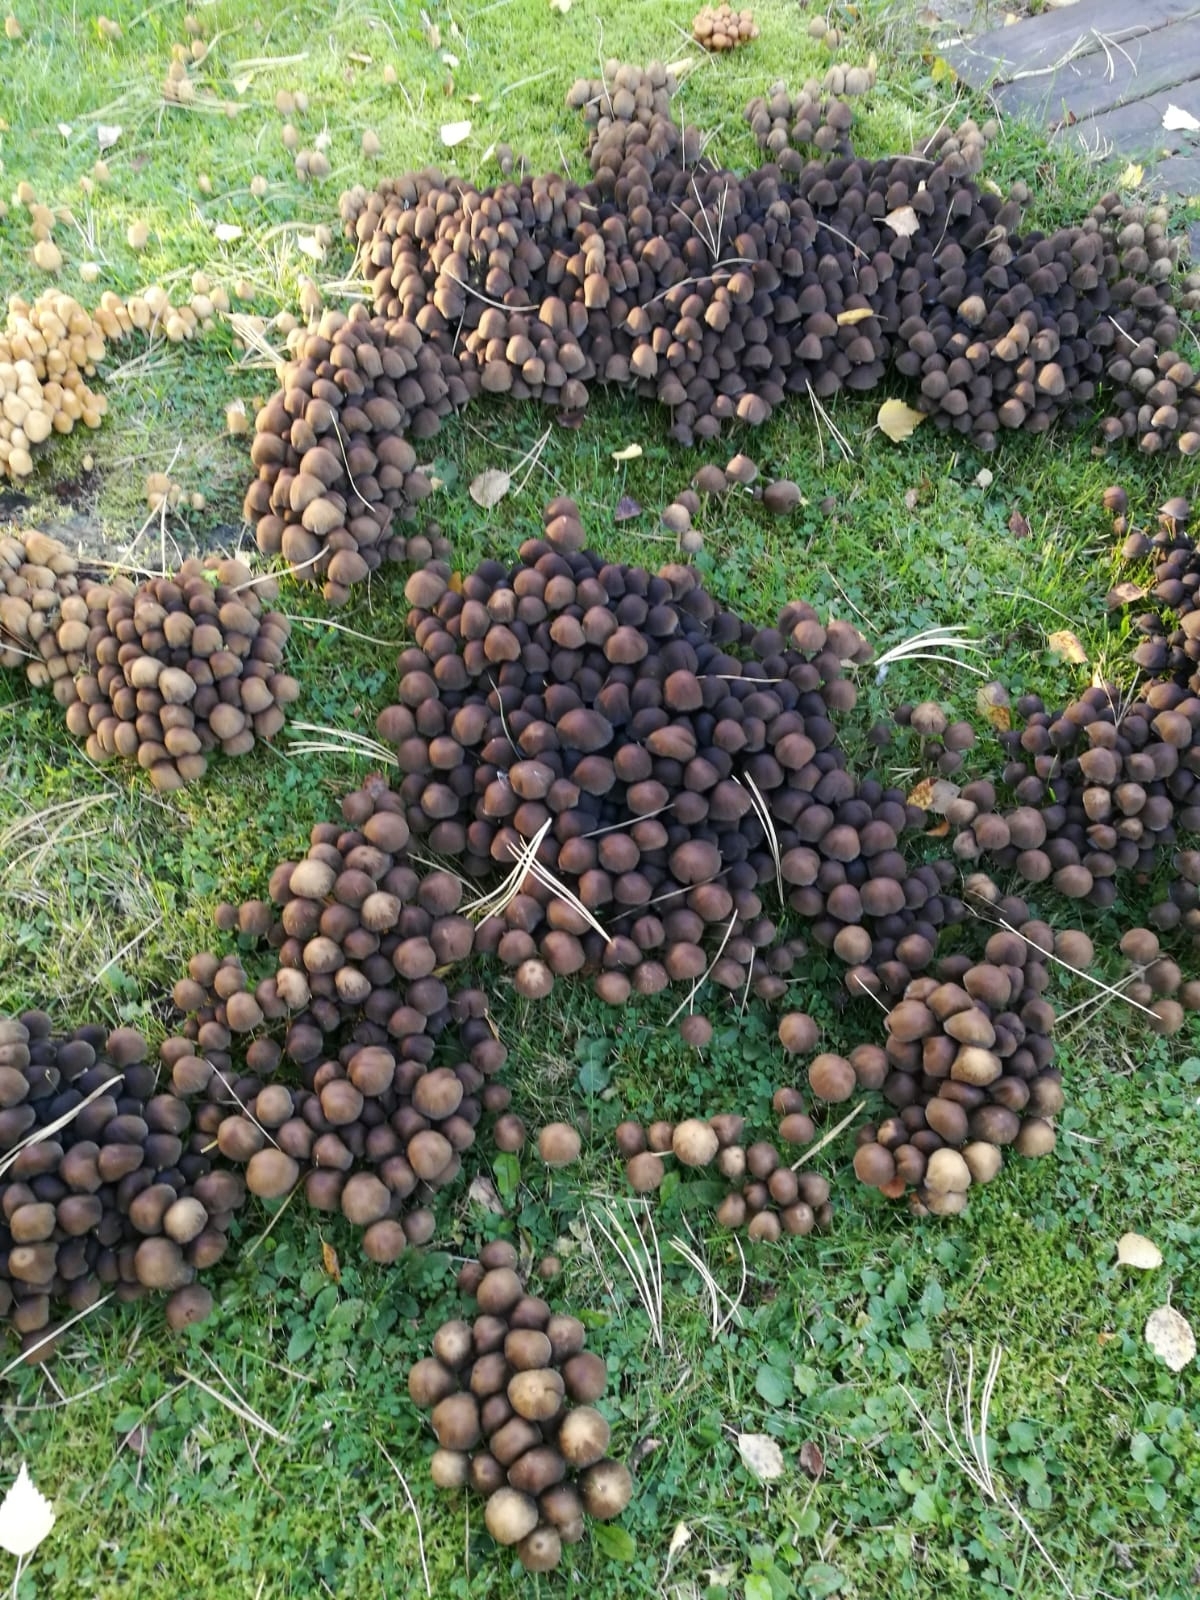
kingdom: Fungi
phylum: Basidiomycota
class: Agaricomycetes
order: Agaricales
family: Psathyrellaceae
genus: Coprinellus
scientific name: Coprinellus disseminatus
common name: Fairies' bonnets
